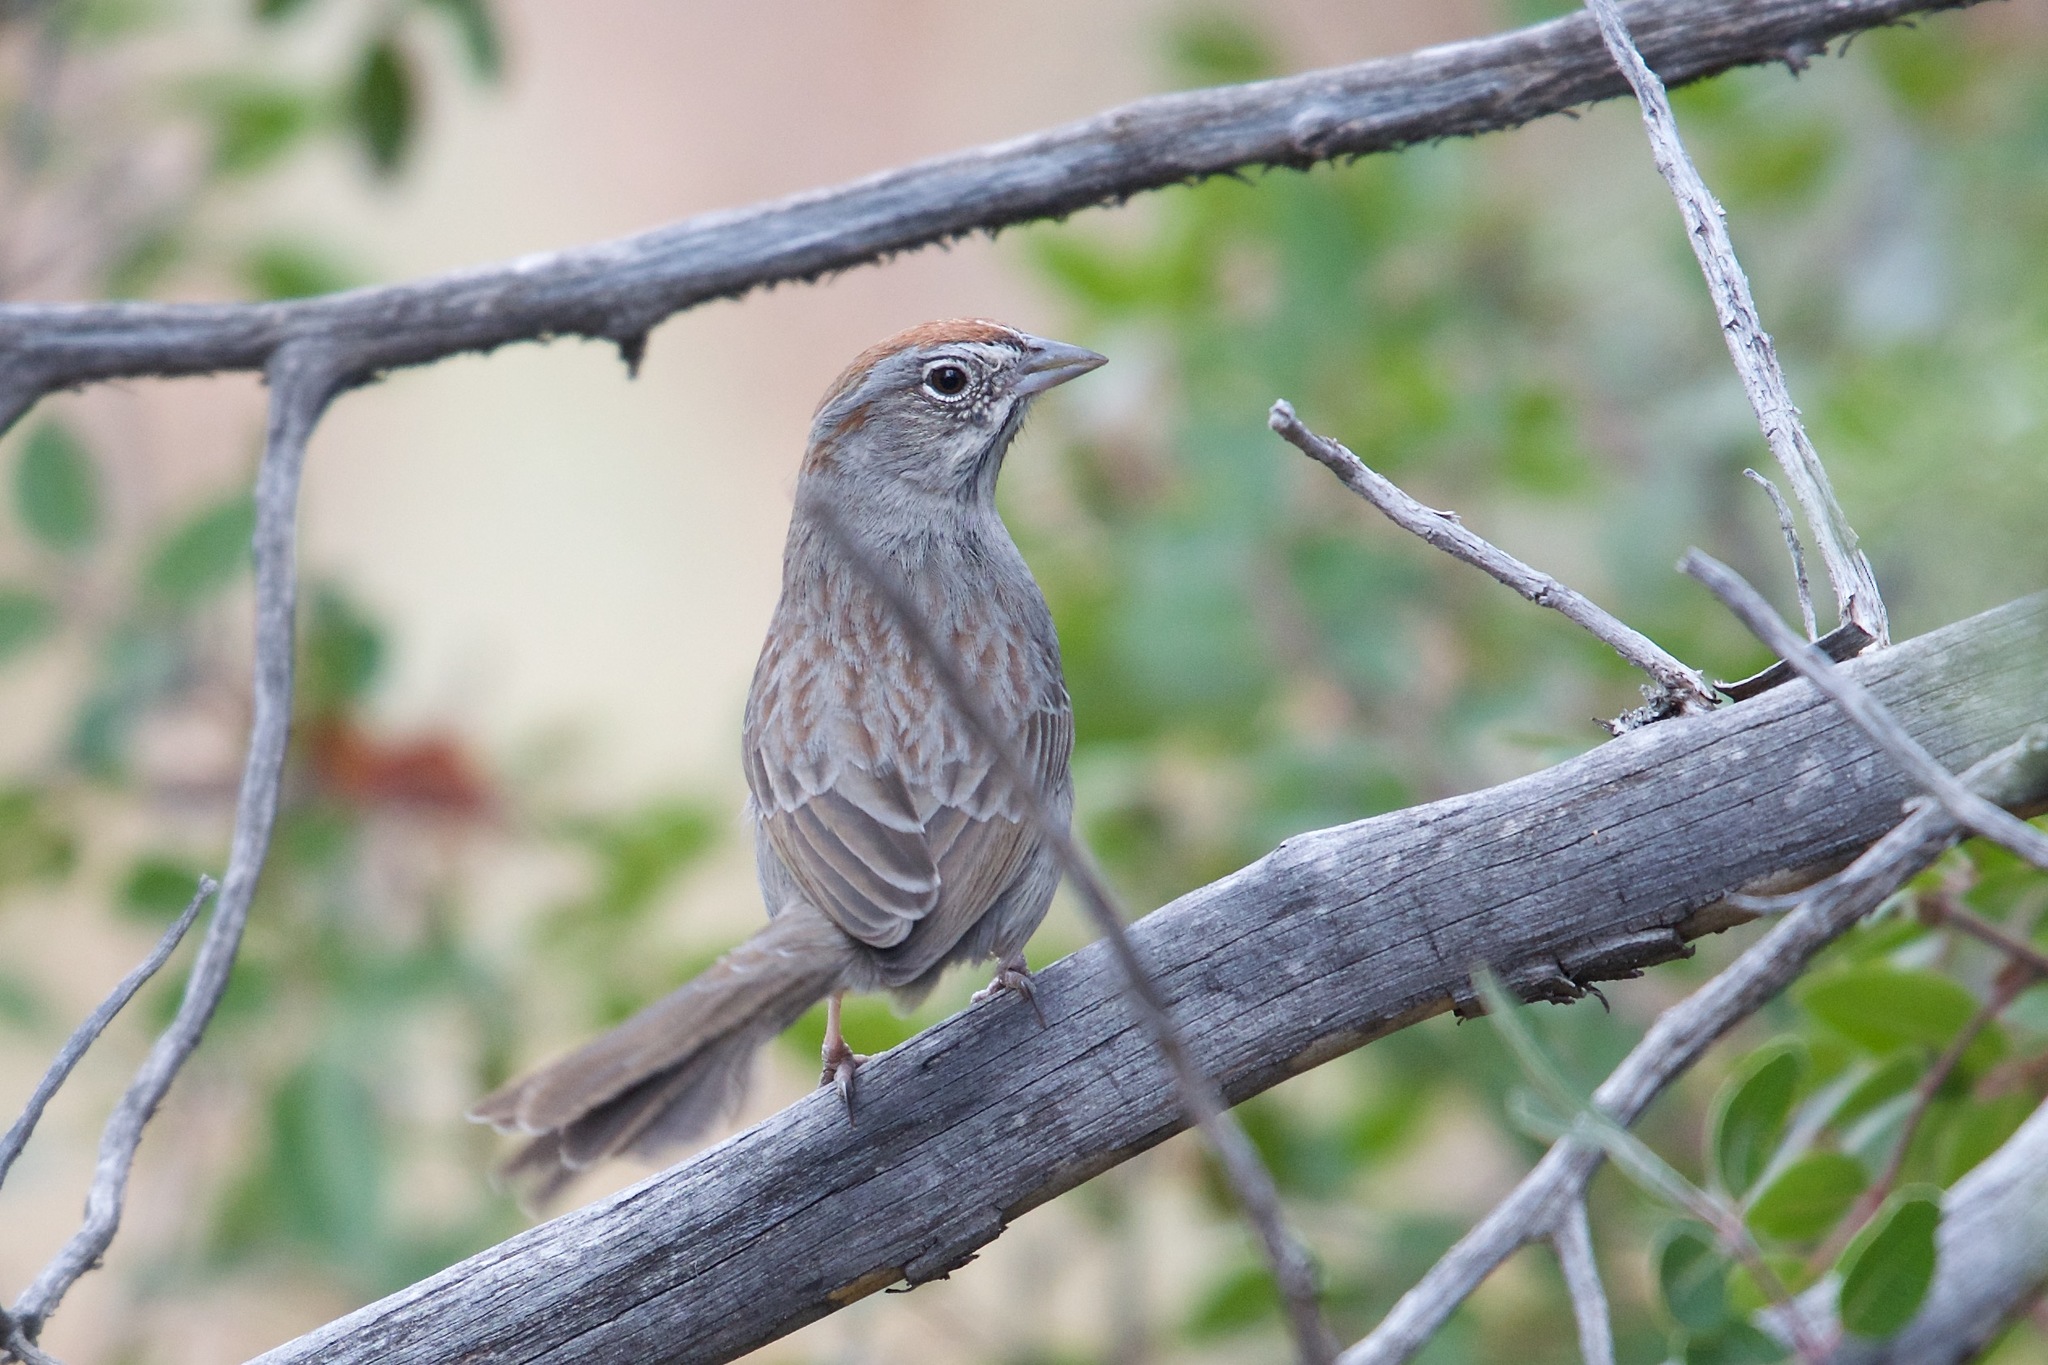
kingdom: Animalia
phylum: Chordata
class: Aves
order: Passeriformes
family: Passerellidae
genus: Aimophila
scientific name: Aimophila ruficeps
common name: Rufous-crowned sparrow
